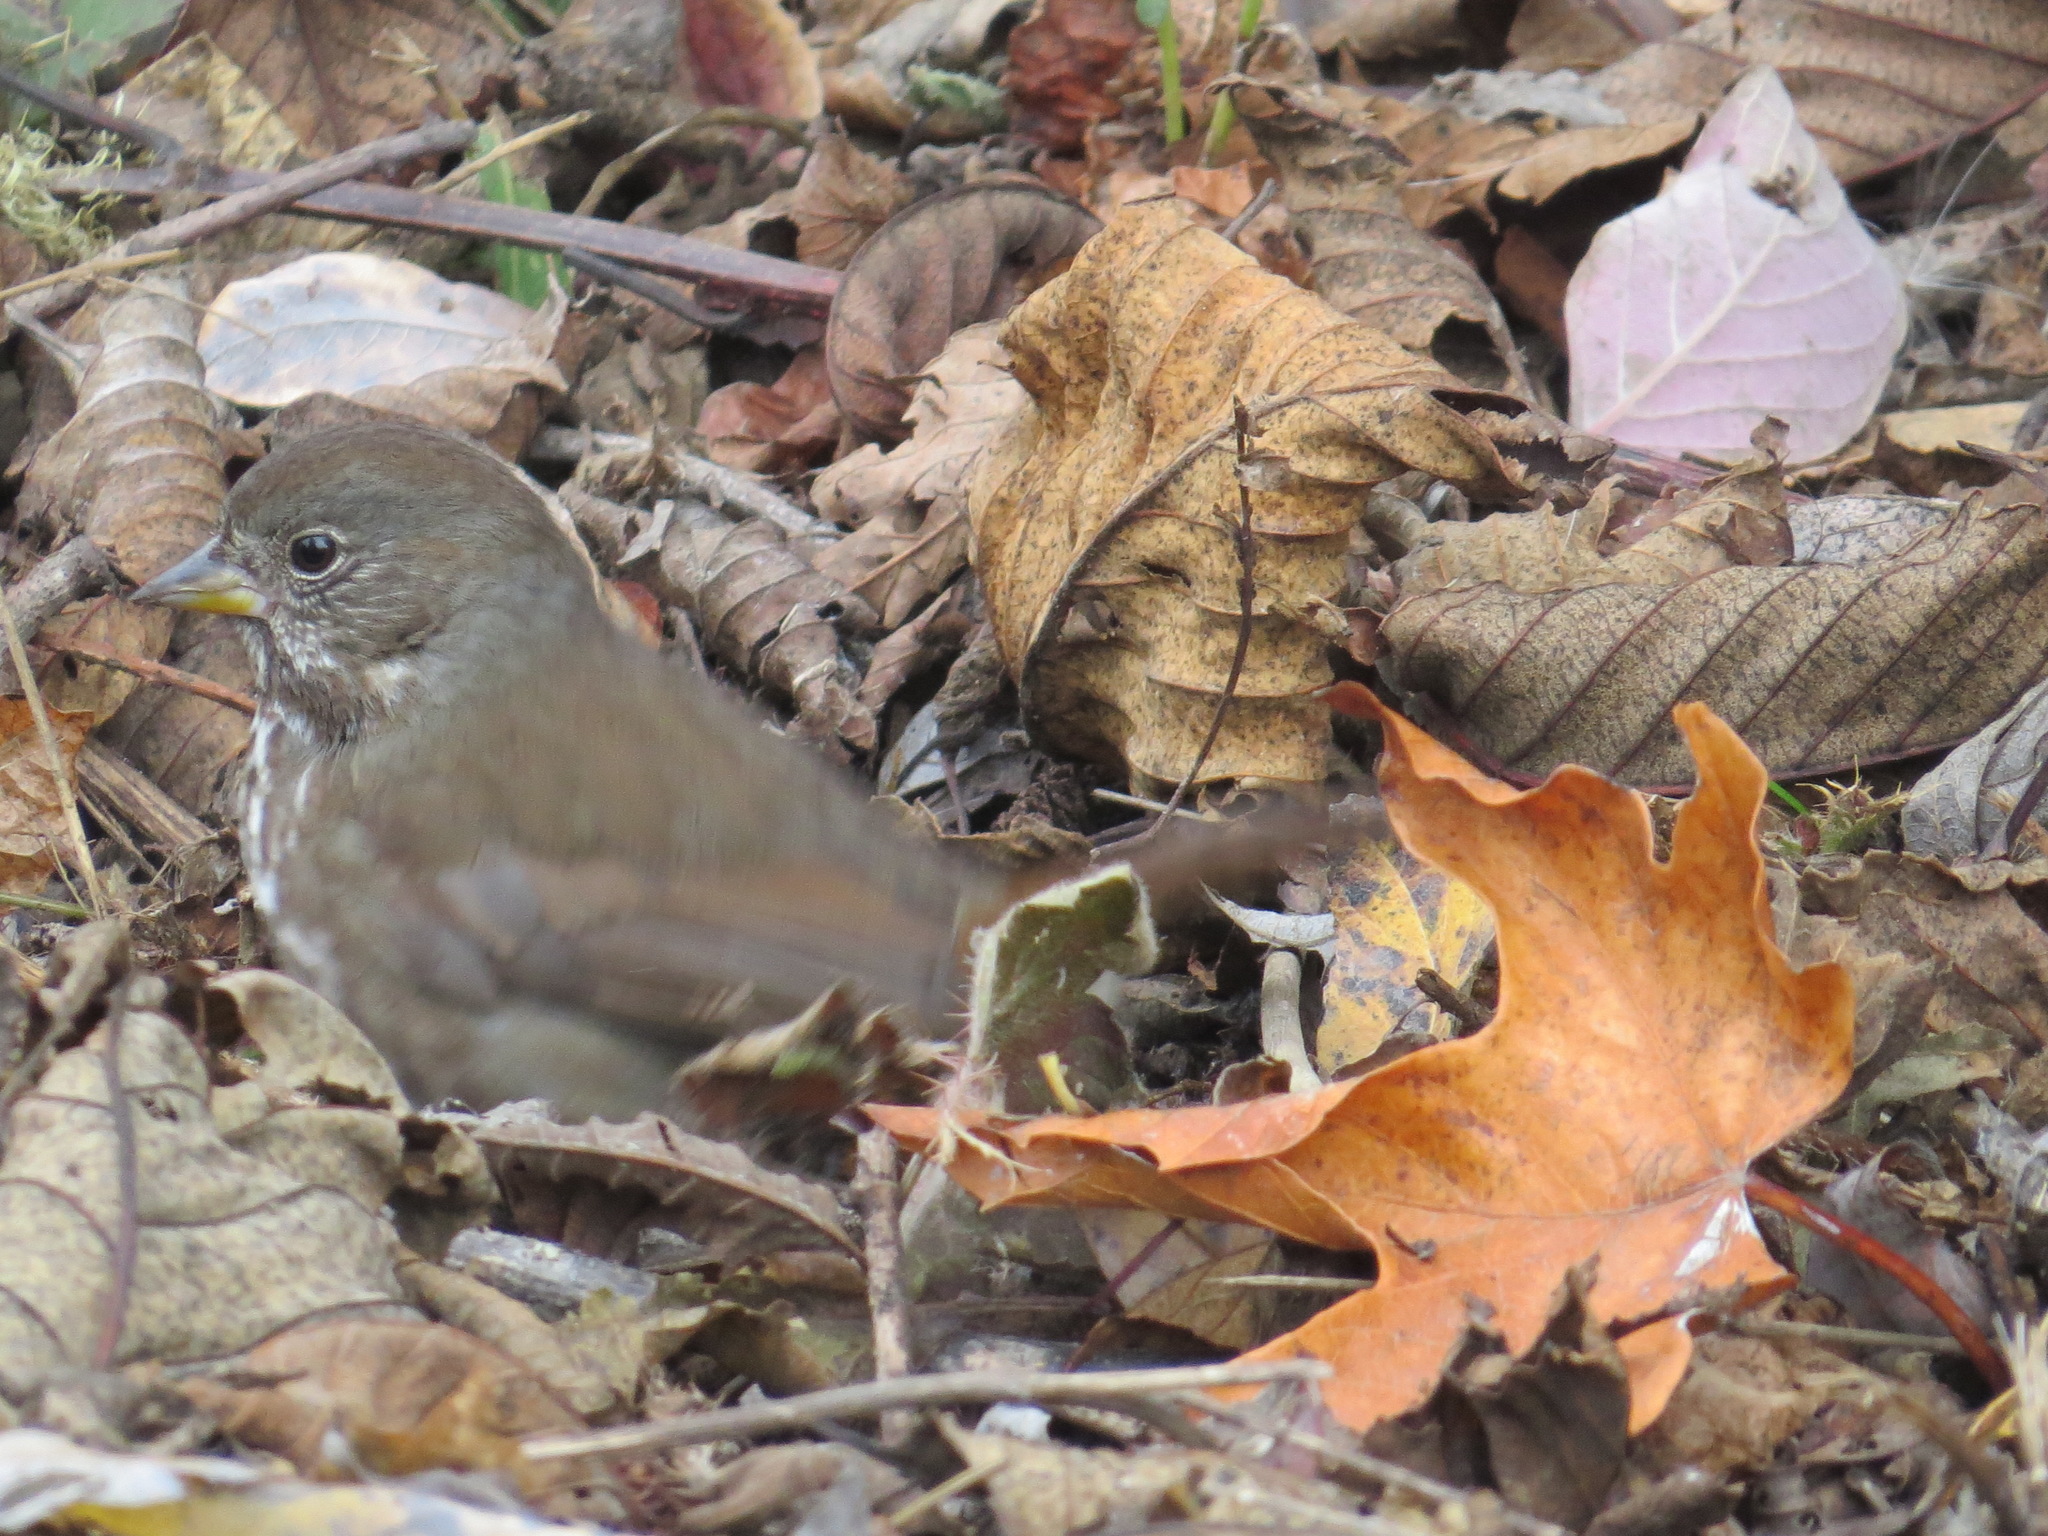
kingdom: Animalia
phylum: Chordata
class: Aves
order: Passeriformes
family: Passerellidae
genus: Passerella
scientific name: Passerella iliaca
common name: Fox sparrow
